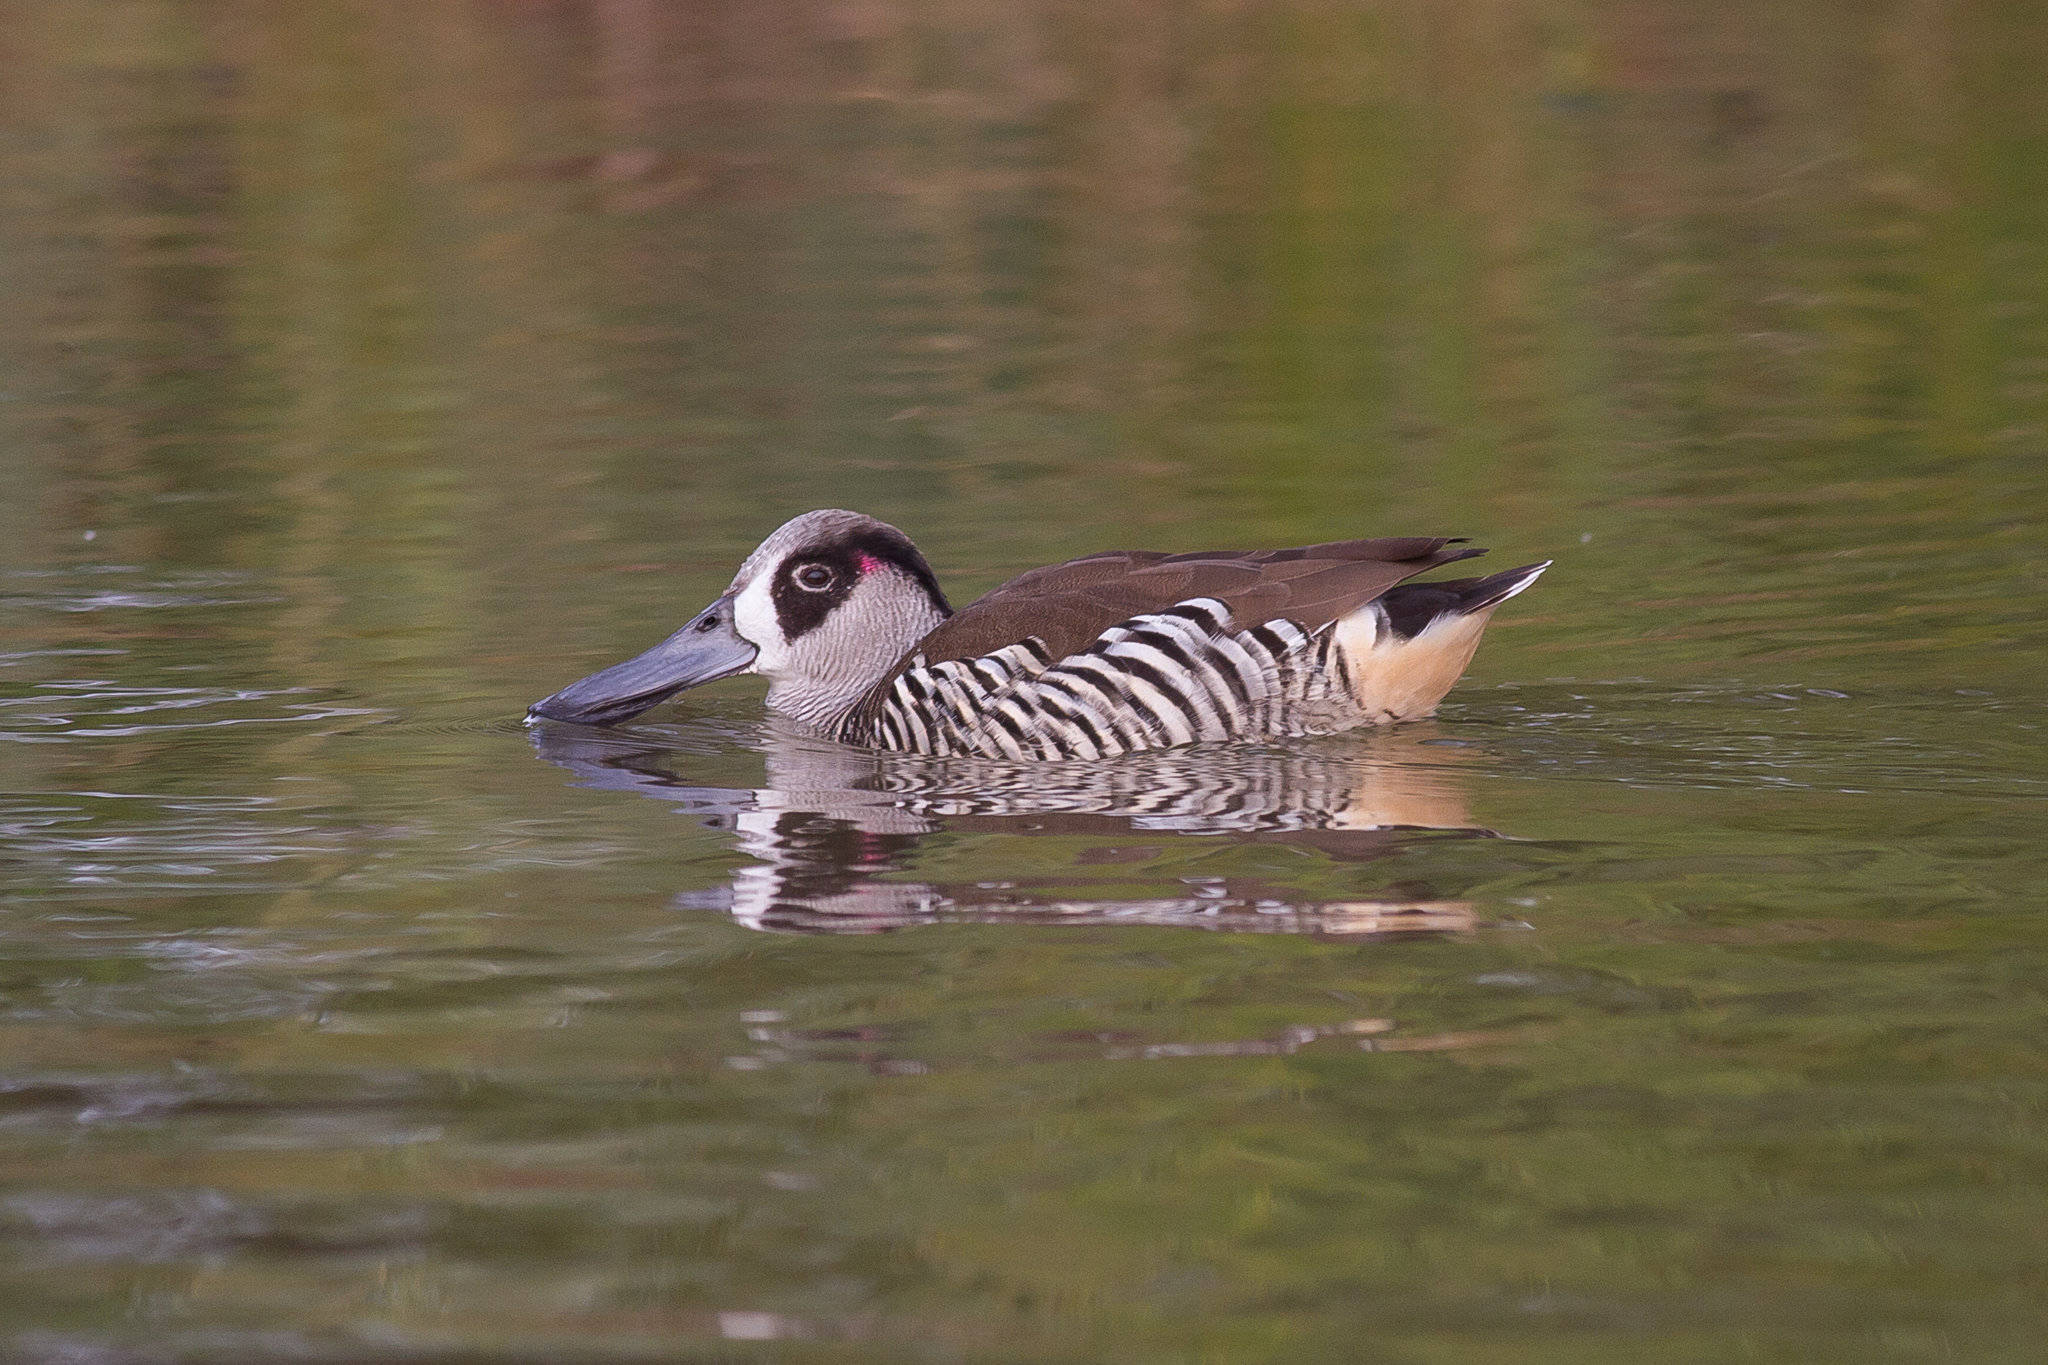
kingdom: Animalia
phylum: Chordata
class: Aves
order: Anseriformes
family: Anatidae
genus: Malacorhynchus
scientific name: Malacorhynchus membranaceus
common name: Pink-eared duck
